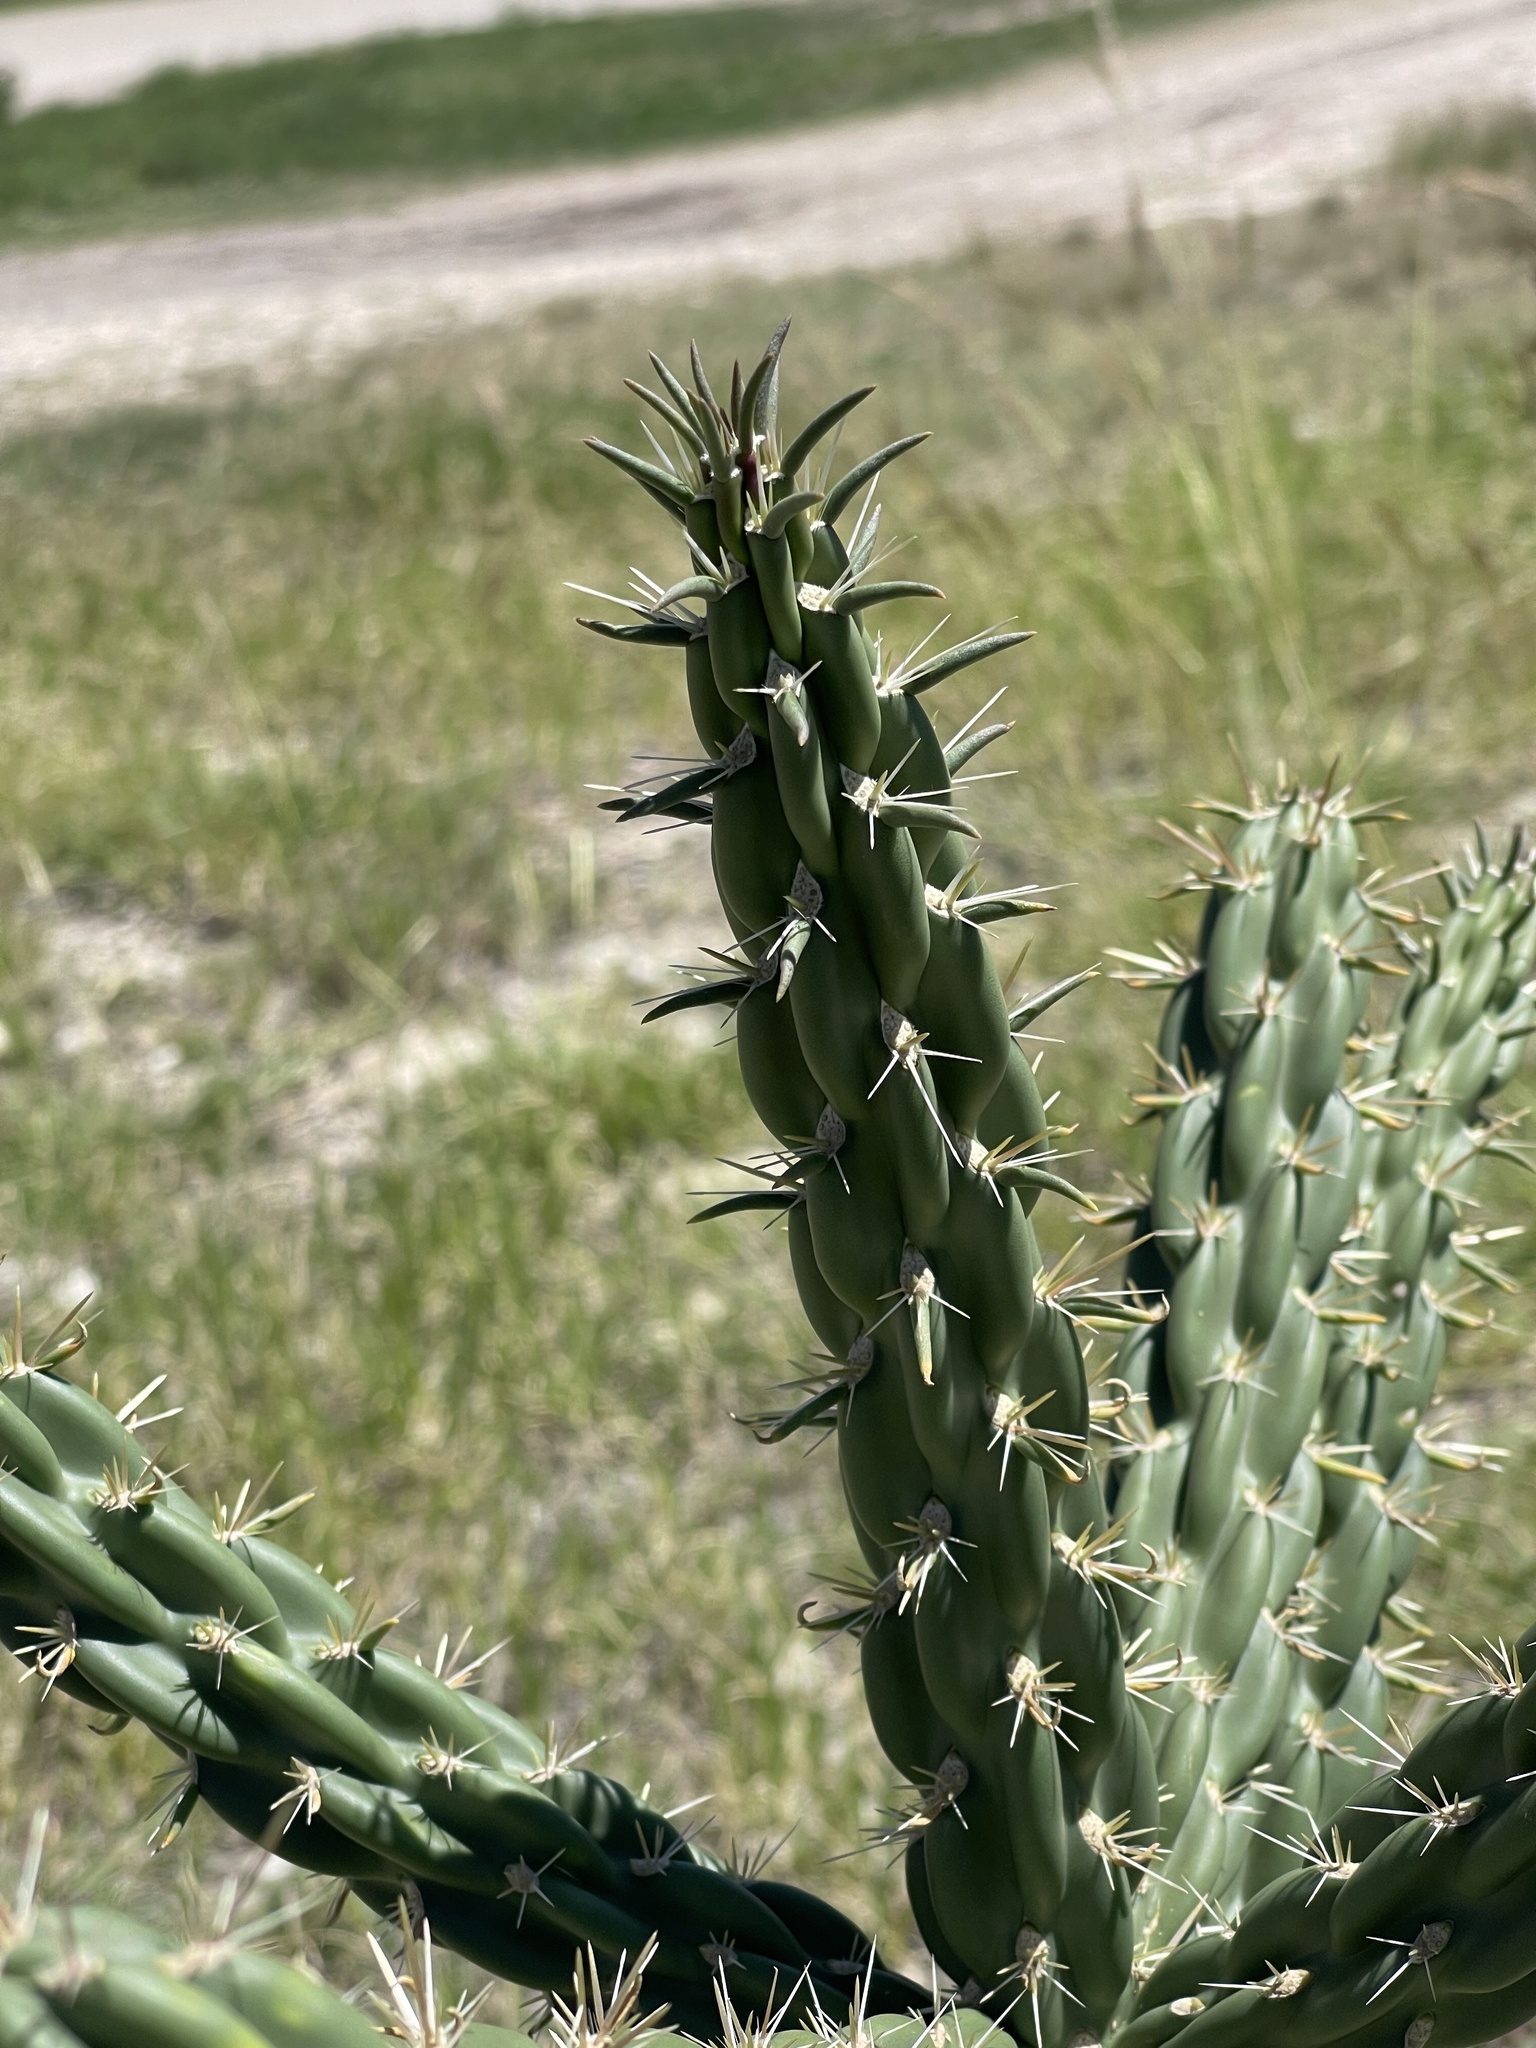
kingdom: Plantae
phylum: Tracheophyta
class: Magnoliopsida
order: Caryophyllales
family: Cactaceae
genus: Cylindropuntia
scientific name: Cylindropuntia imbricata
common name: Candelabrum cactus
